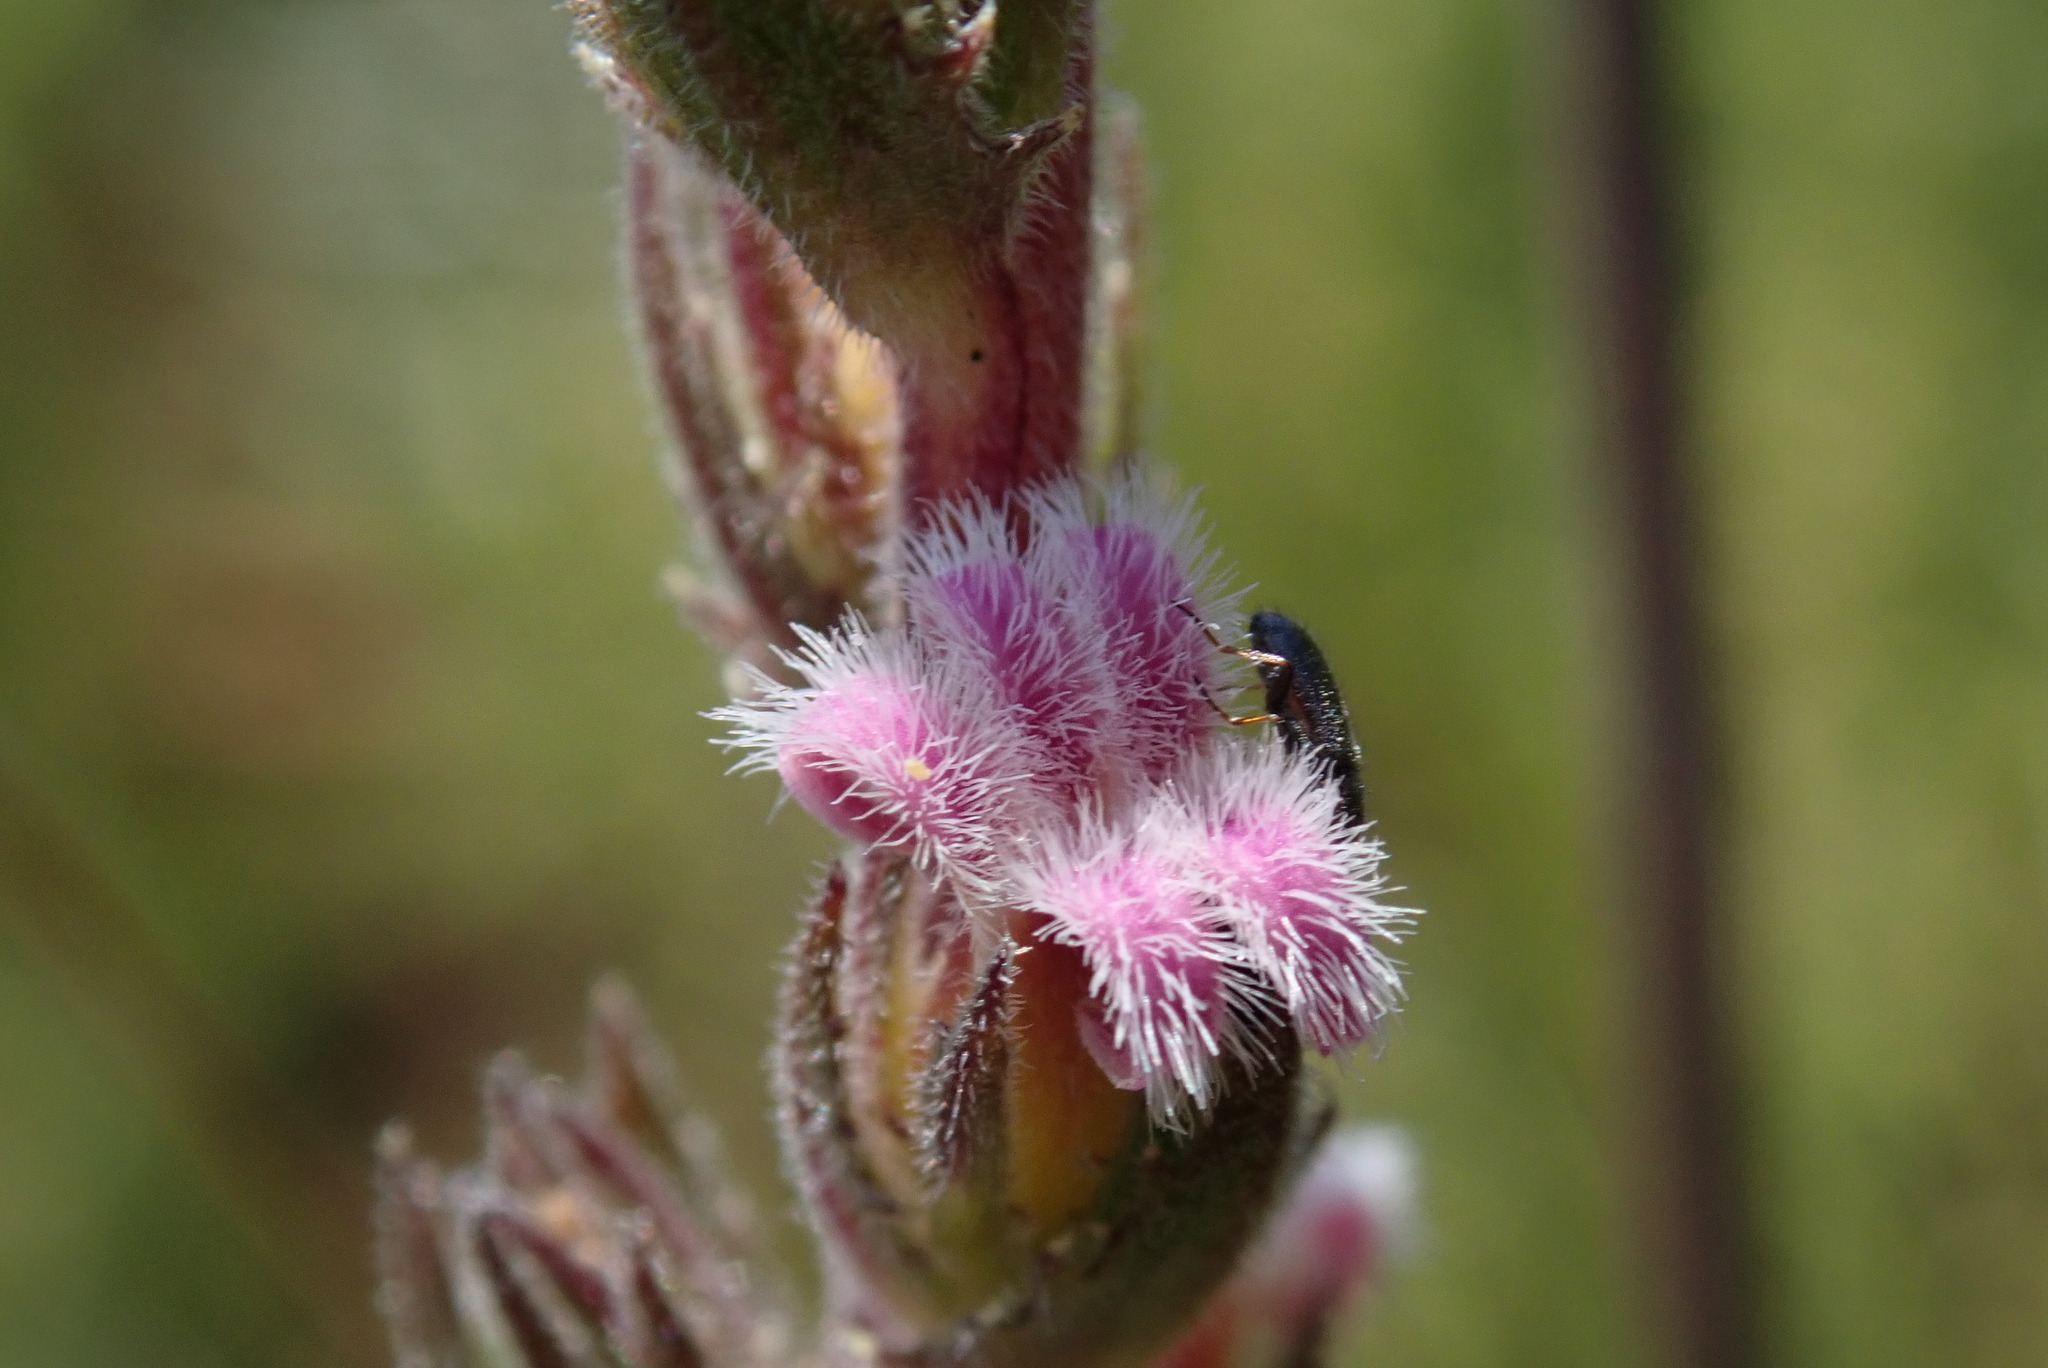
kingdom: Plantae
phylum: Tracheophyta
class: Magnoliopsida
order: Asterales
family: Campanulaceae
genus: Cyphia
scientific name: Cyphia smutsii
